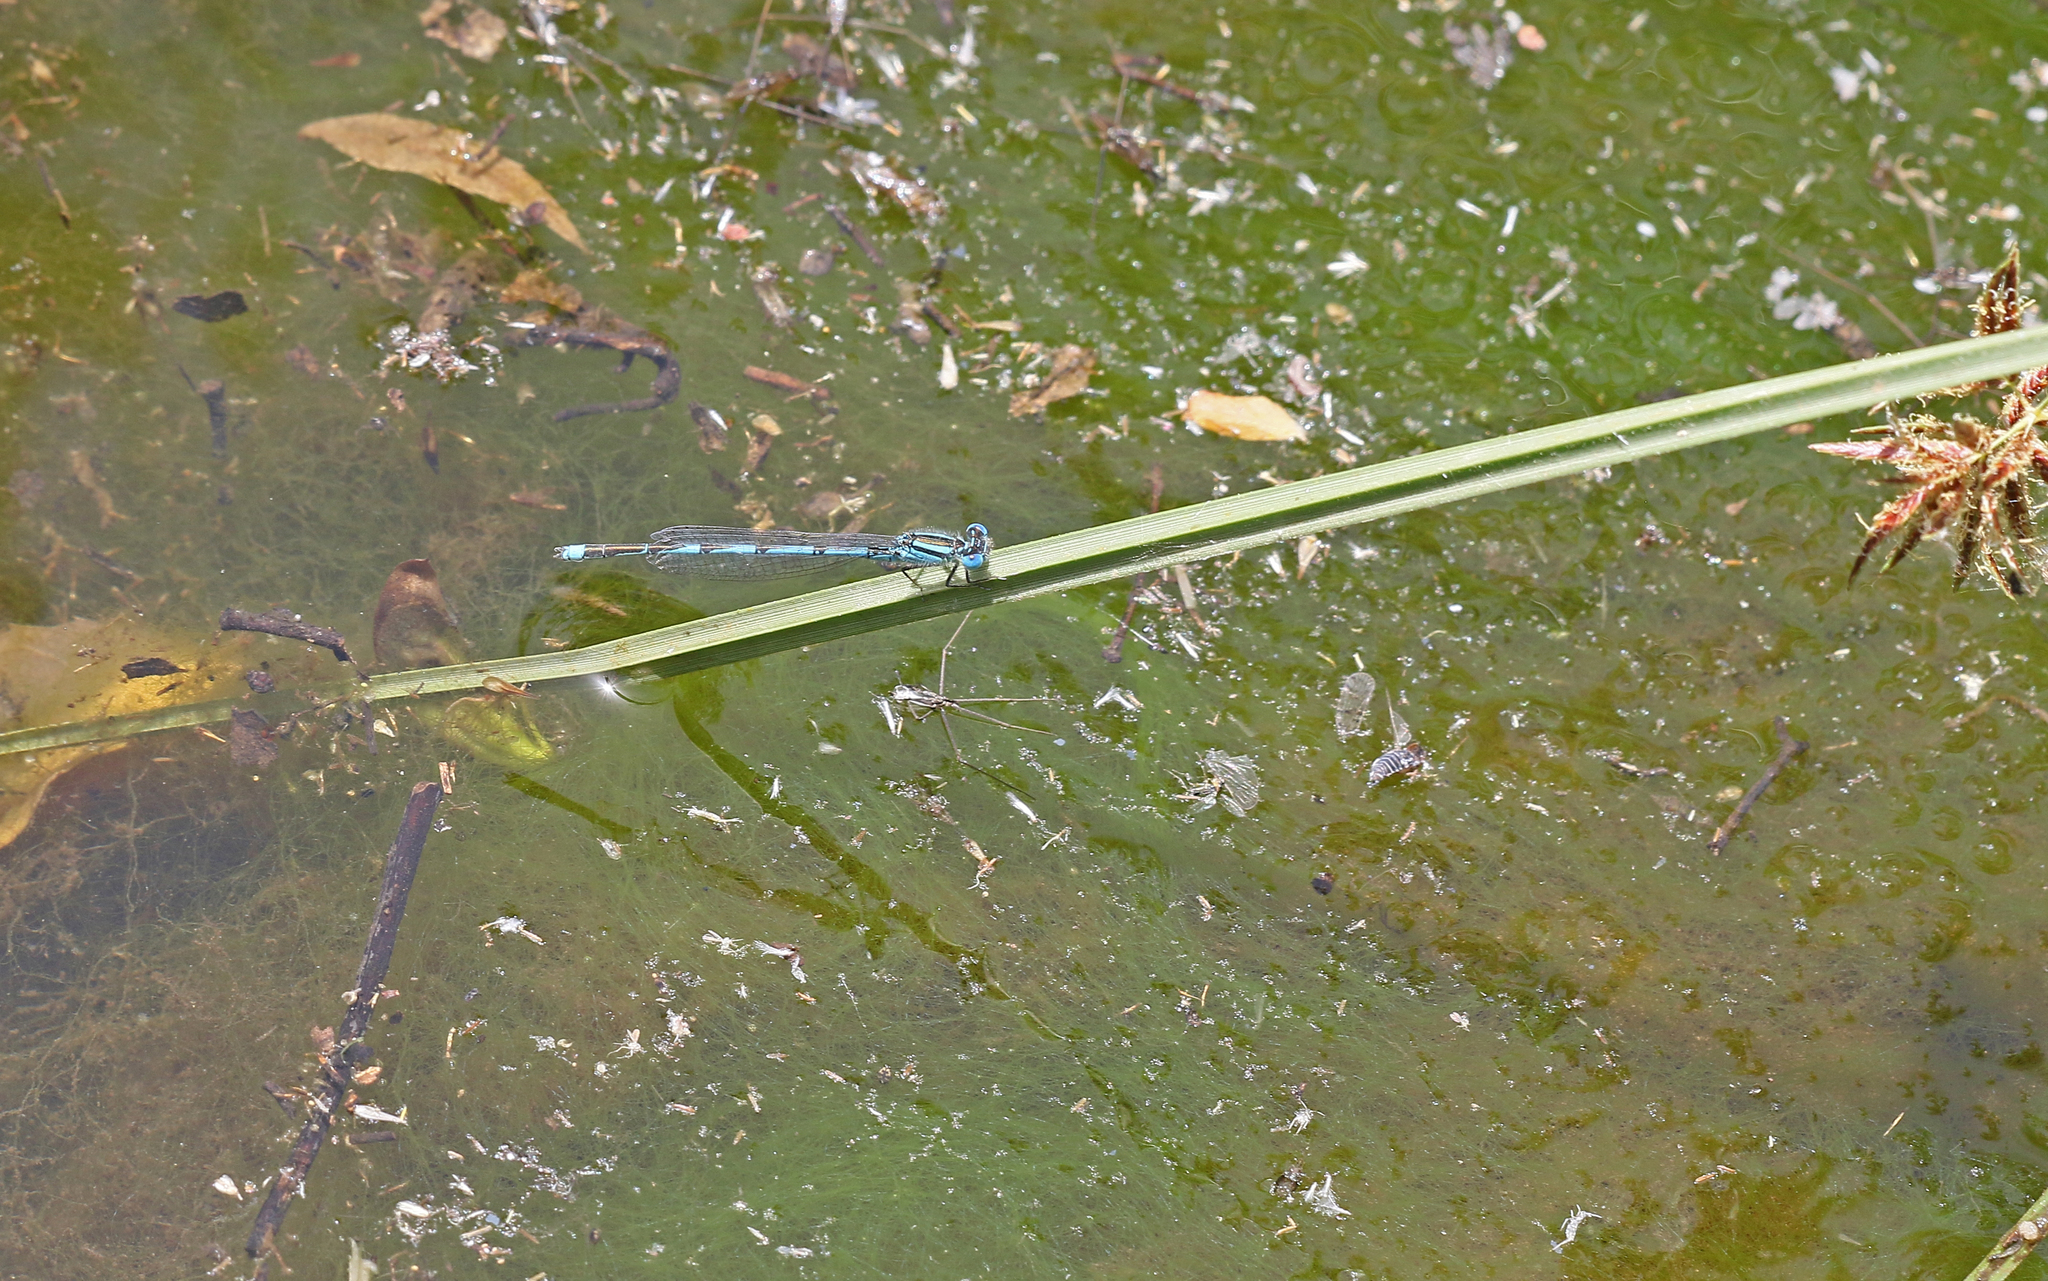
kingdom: Animalia
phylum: Arthropoda
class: Insecta
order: Odonata
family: Coenagrionidae
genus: Erythromma
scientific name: Erythromma lindenii
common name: Blue-eye
